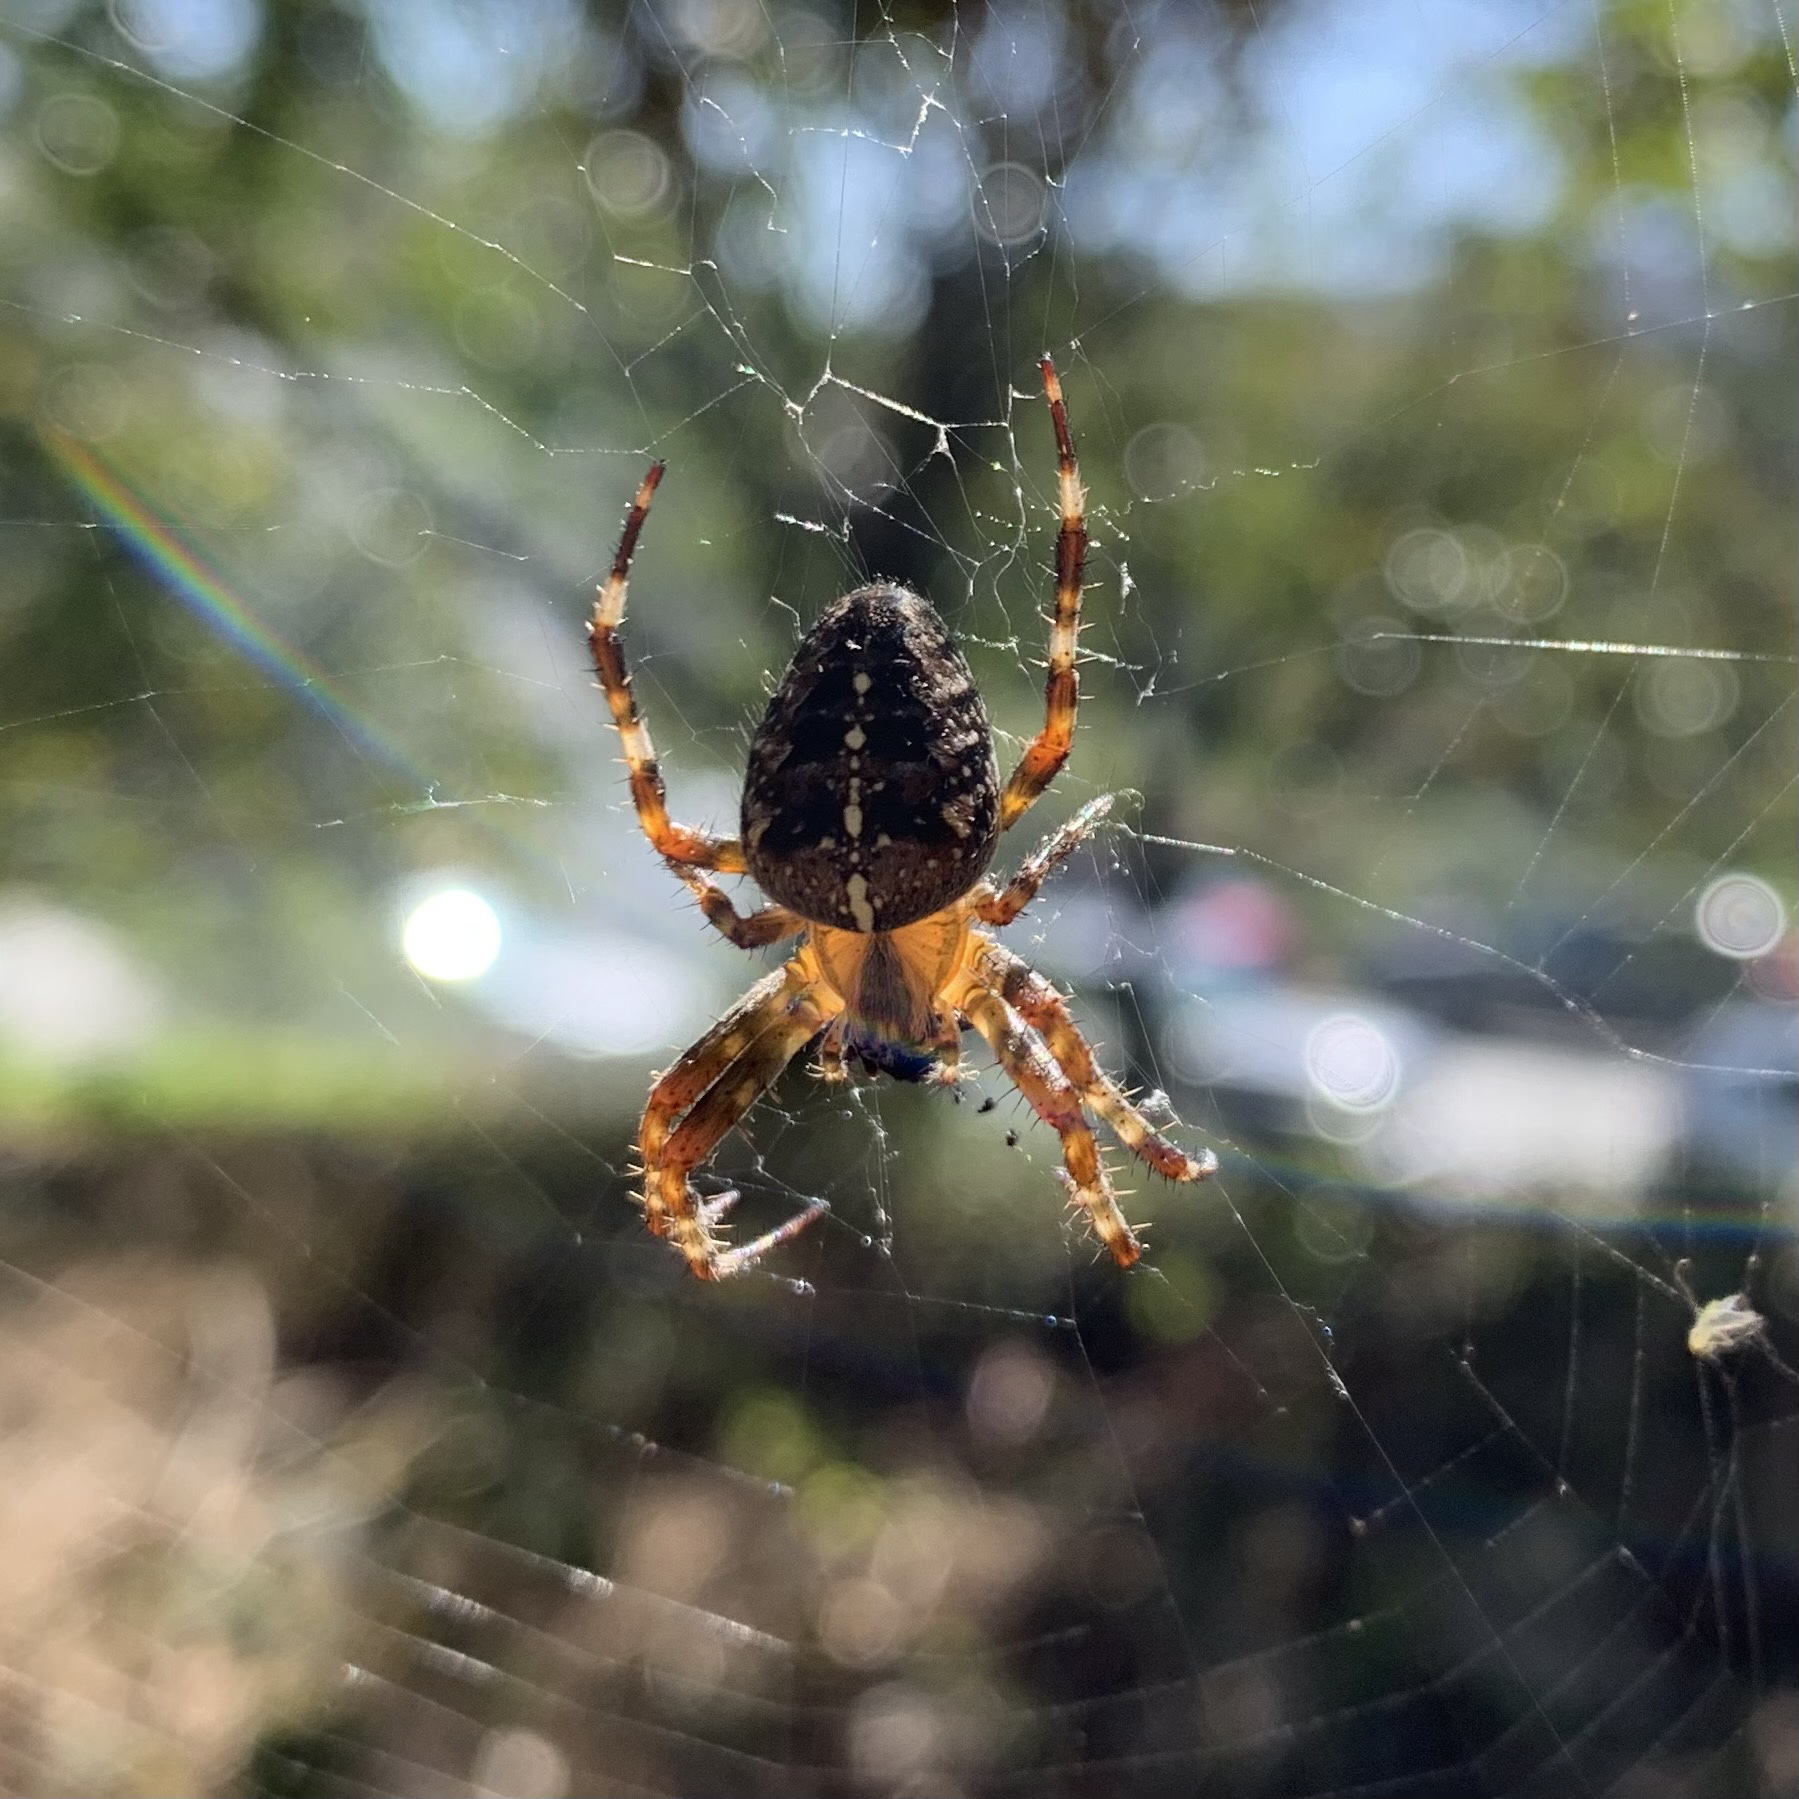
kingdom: Animalia
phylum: Arthropoda
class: Arachnida
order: Araneae
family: Araneidae
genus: Araneus
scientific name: Araneus diadematus
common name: Cross orbweaver
